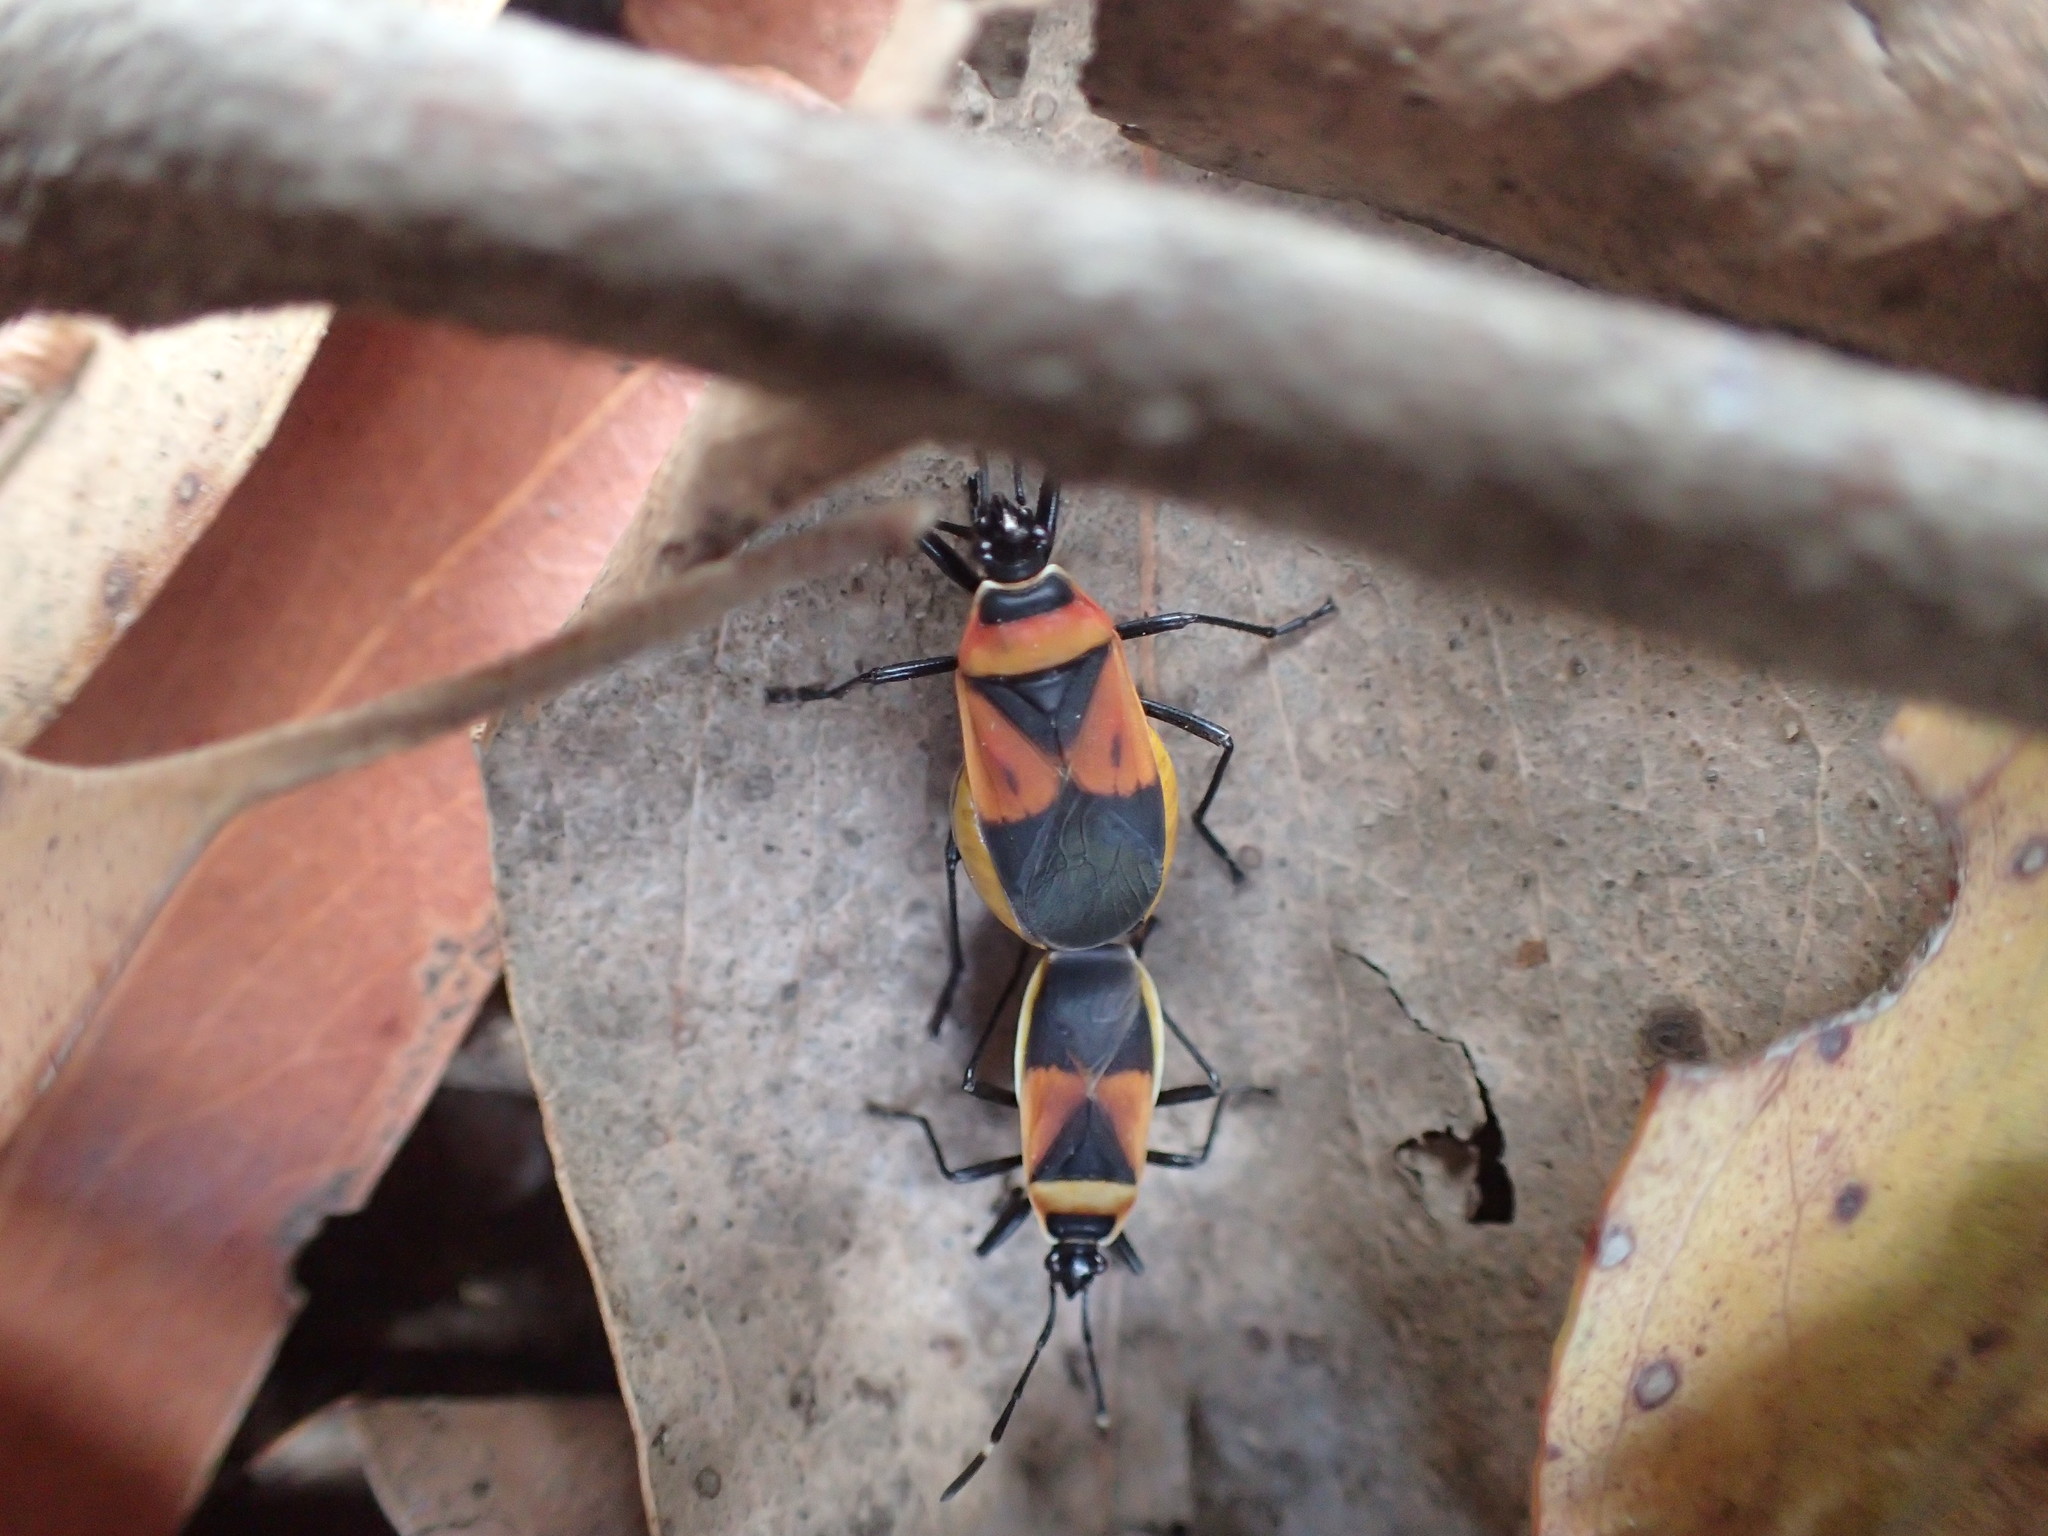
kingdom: Animalia
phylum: Arthropoda
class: Insecta
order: Hemiptera
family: Pyrrhocoridae
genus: Dindymus
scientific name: Dindymus
